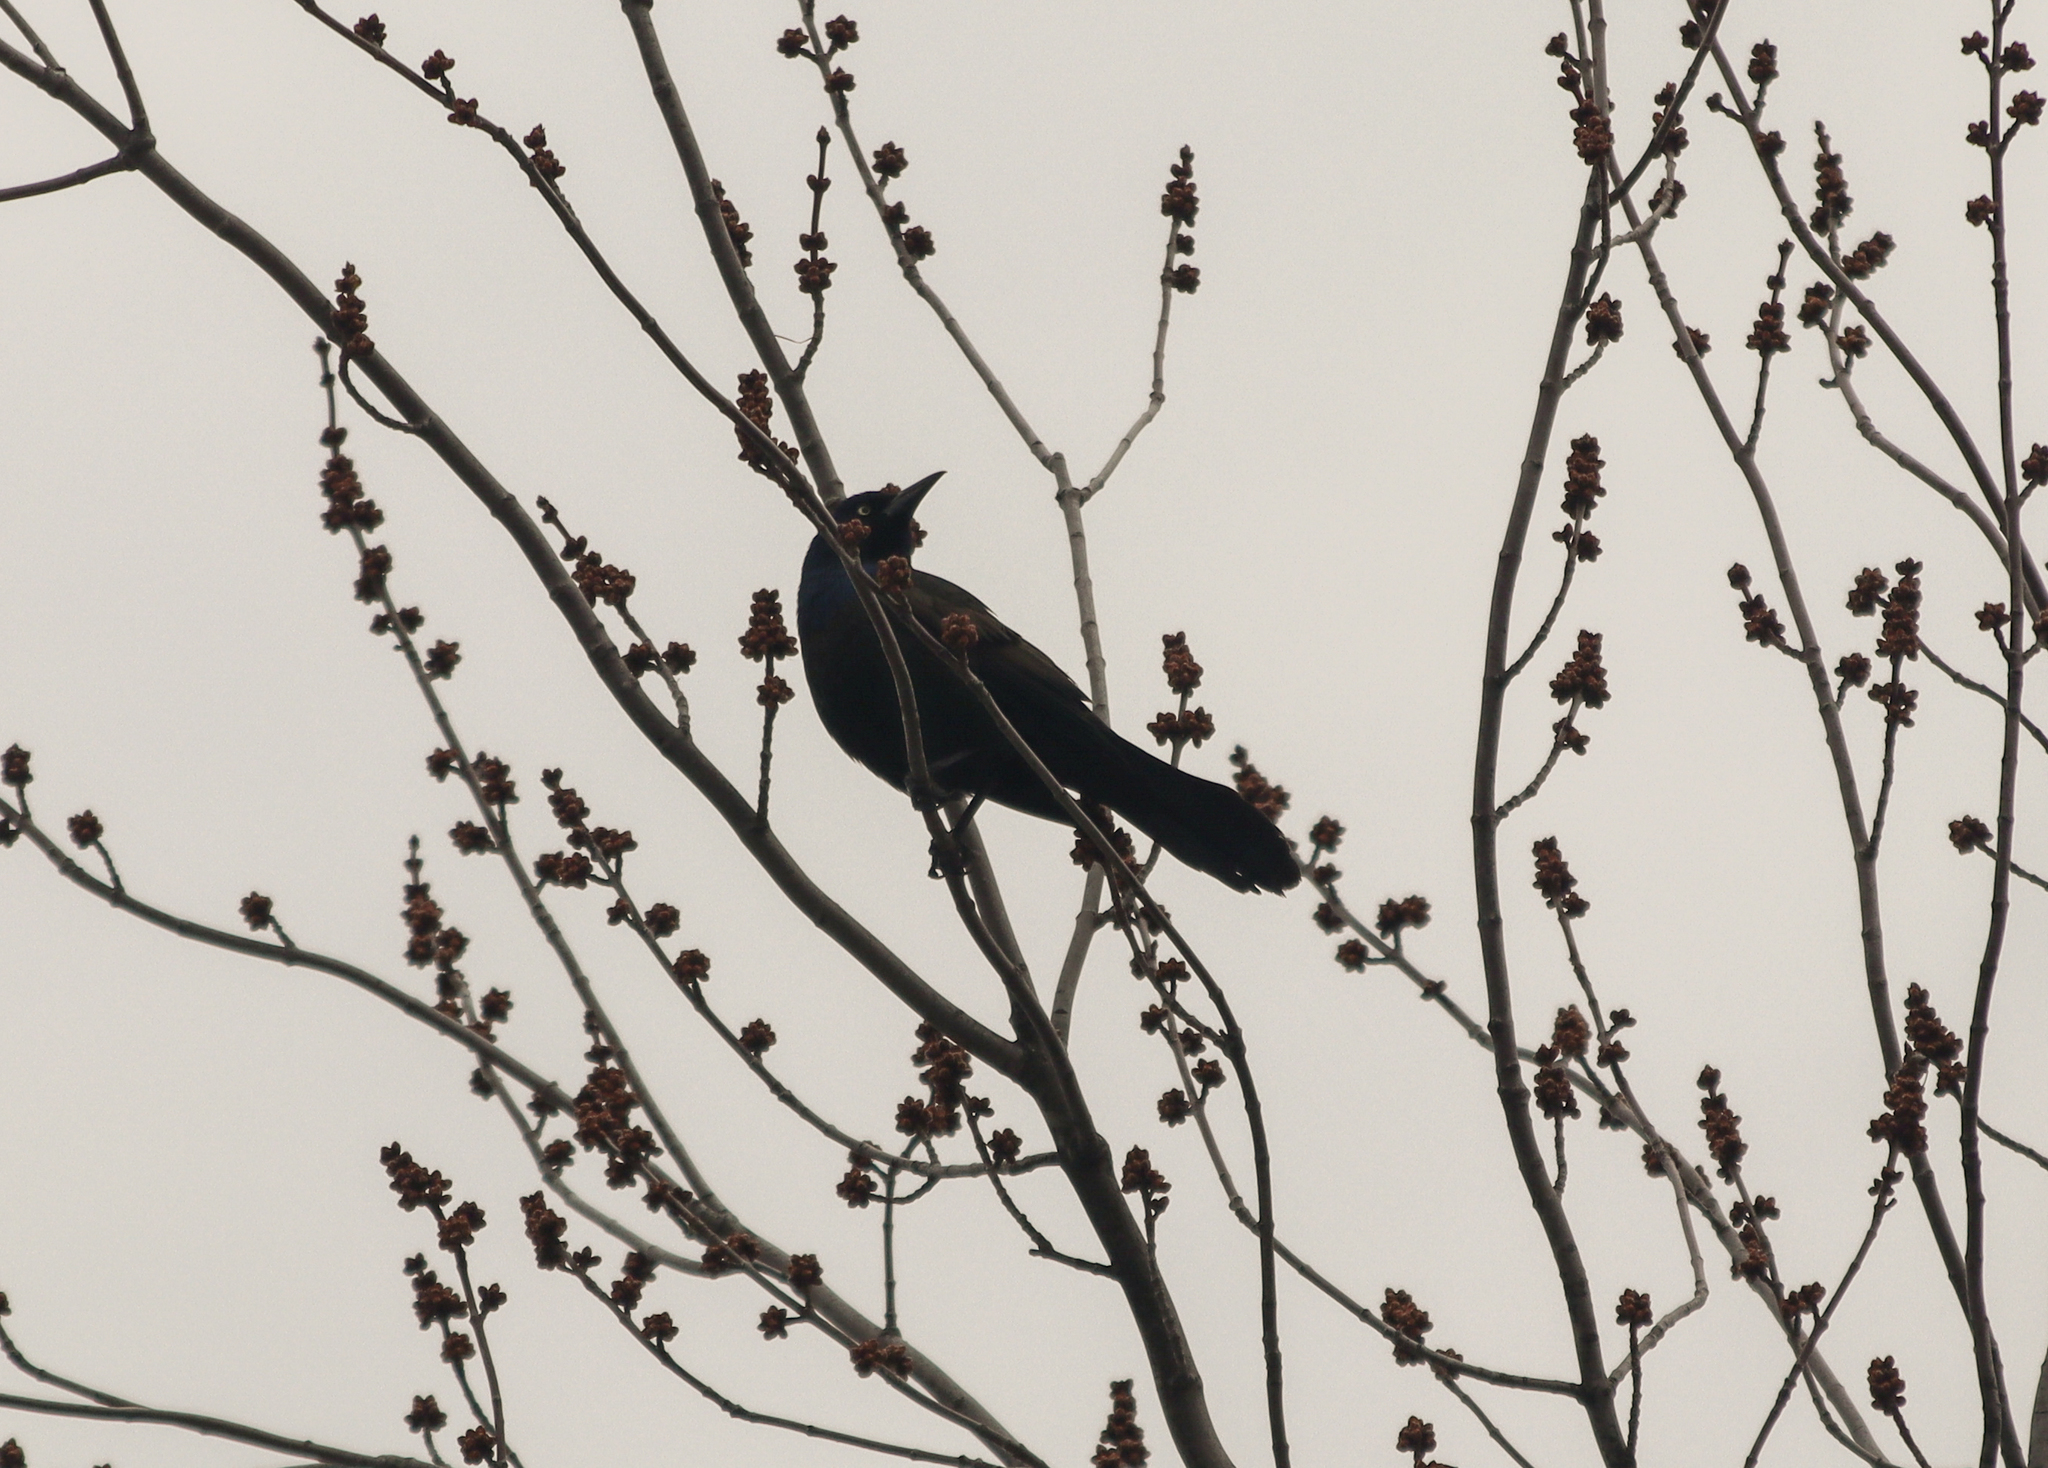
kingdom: Animalia
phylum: Chordata
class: Aves
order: Passeriformes
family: Icteridae
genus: Quiscalus
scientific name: Quiscalus quiscula
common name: Common grackle
